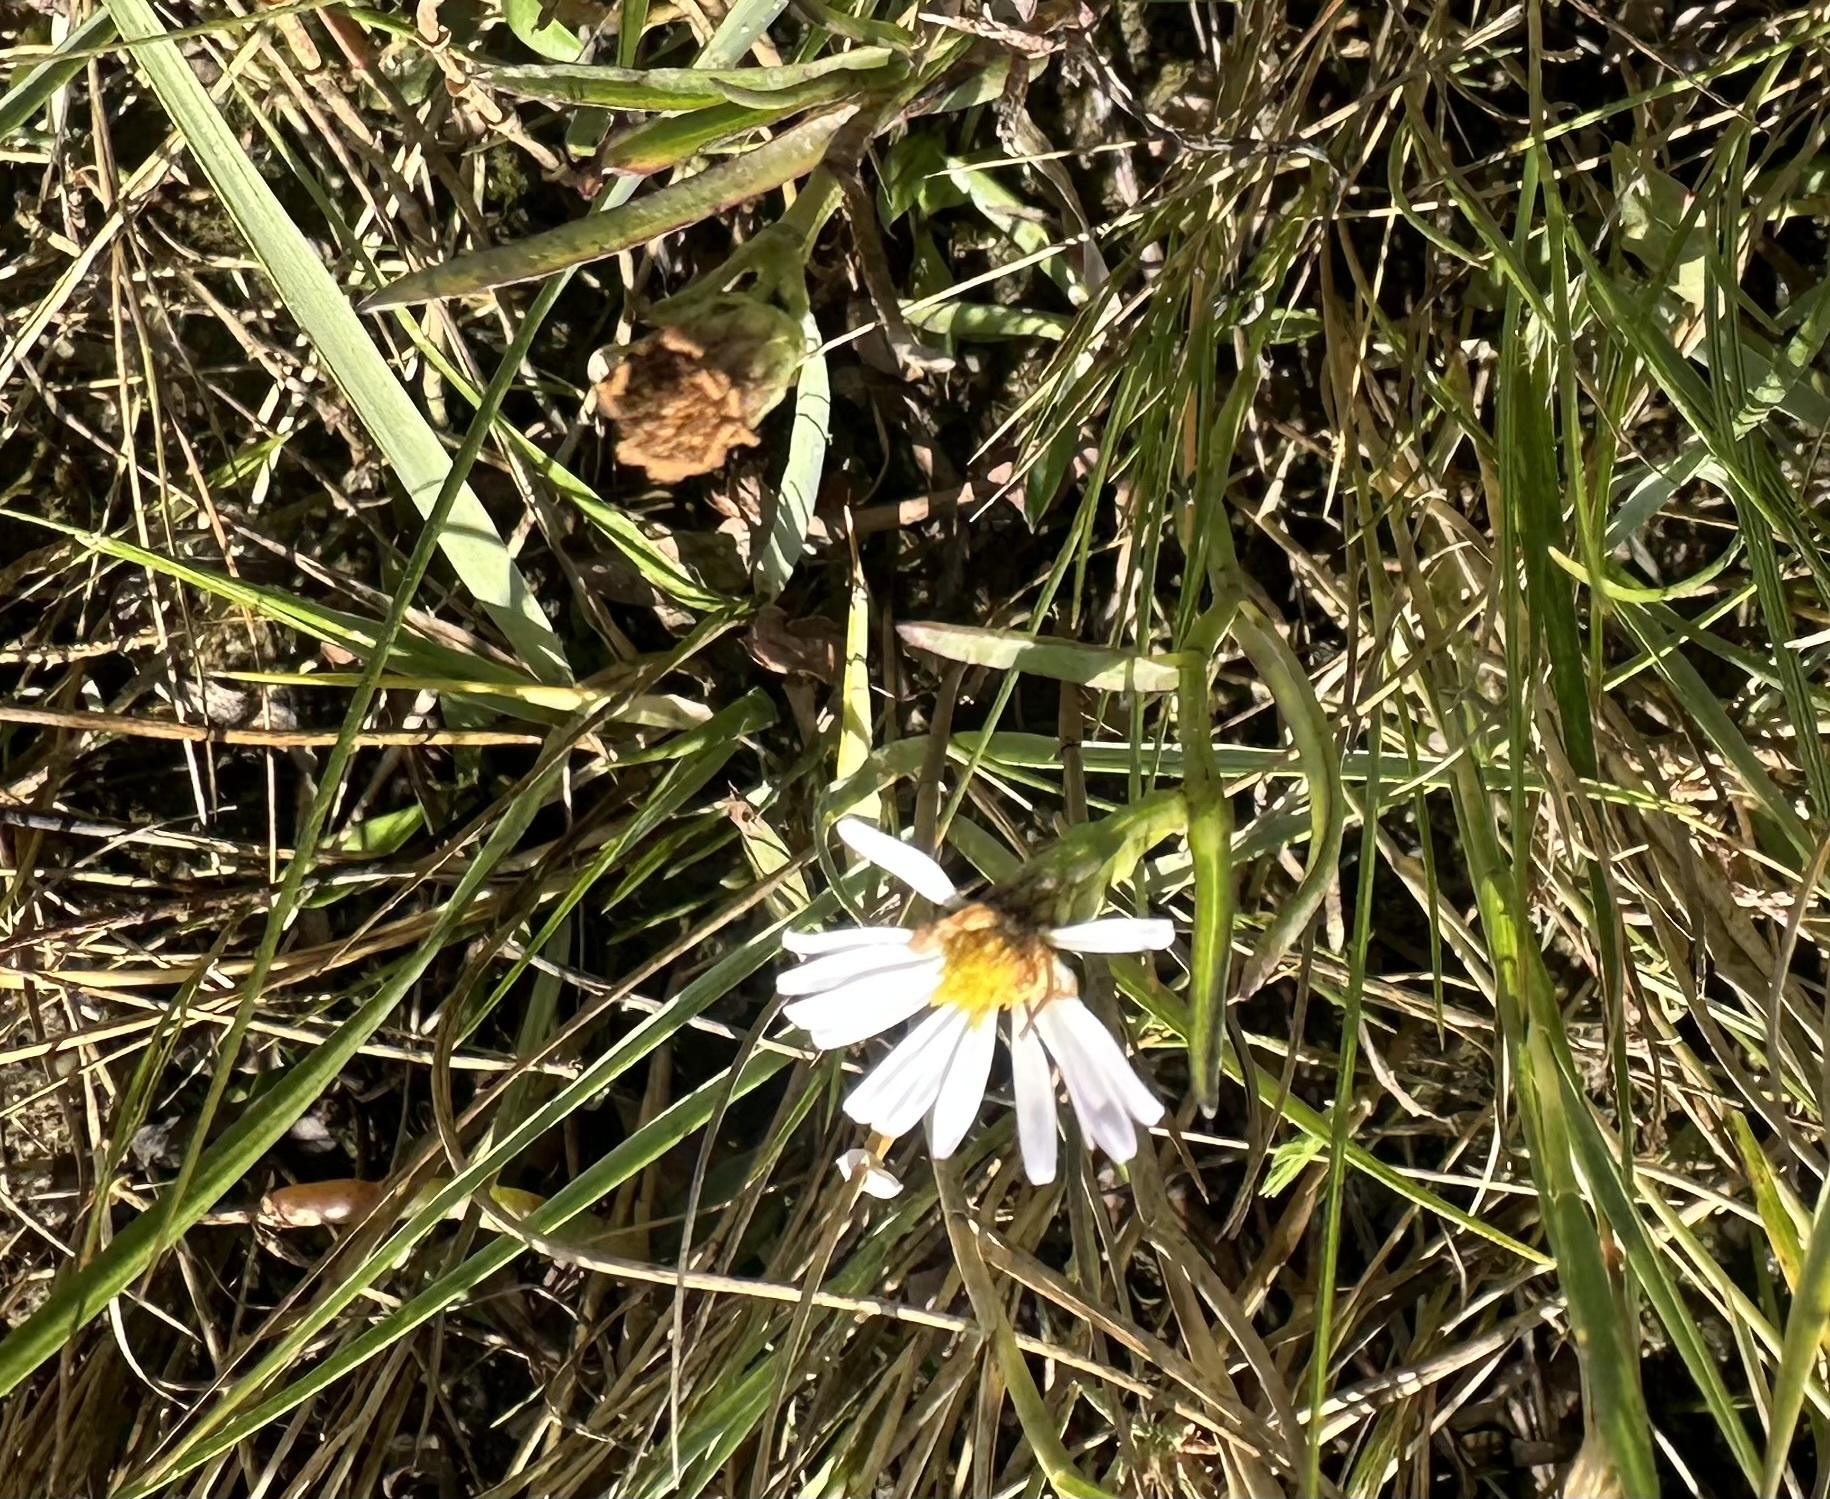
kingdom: Plantae
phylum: Tracheophyta
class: Magnoliopsida
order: Asterales
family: Asteraceae
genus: Symphyotrichum
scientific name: Symphyotrichum tenuifolium
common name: Perennial salt-marsh aster
